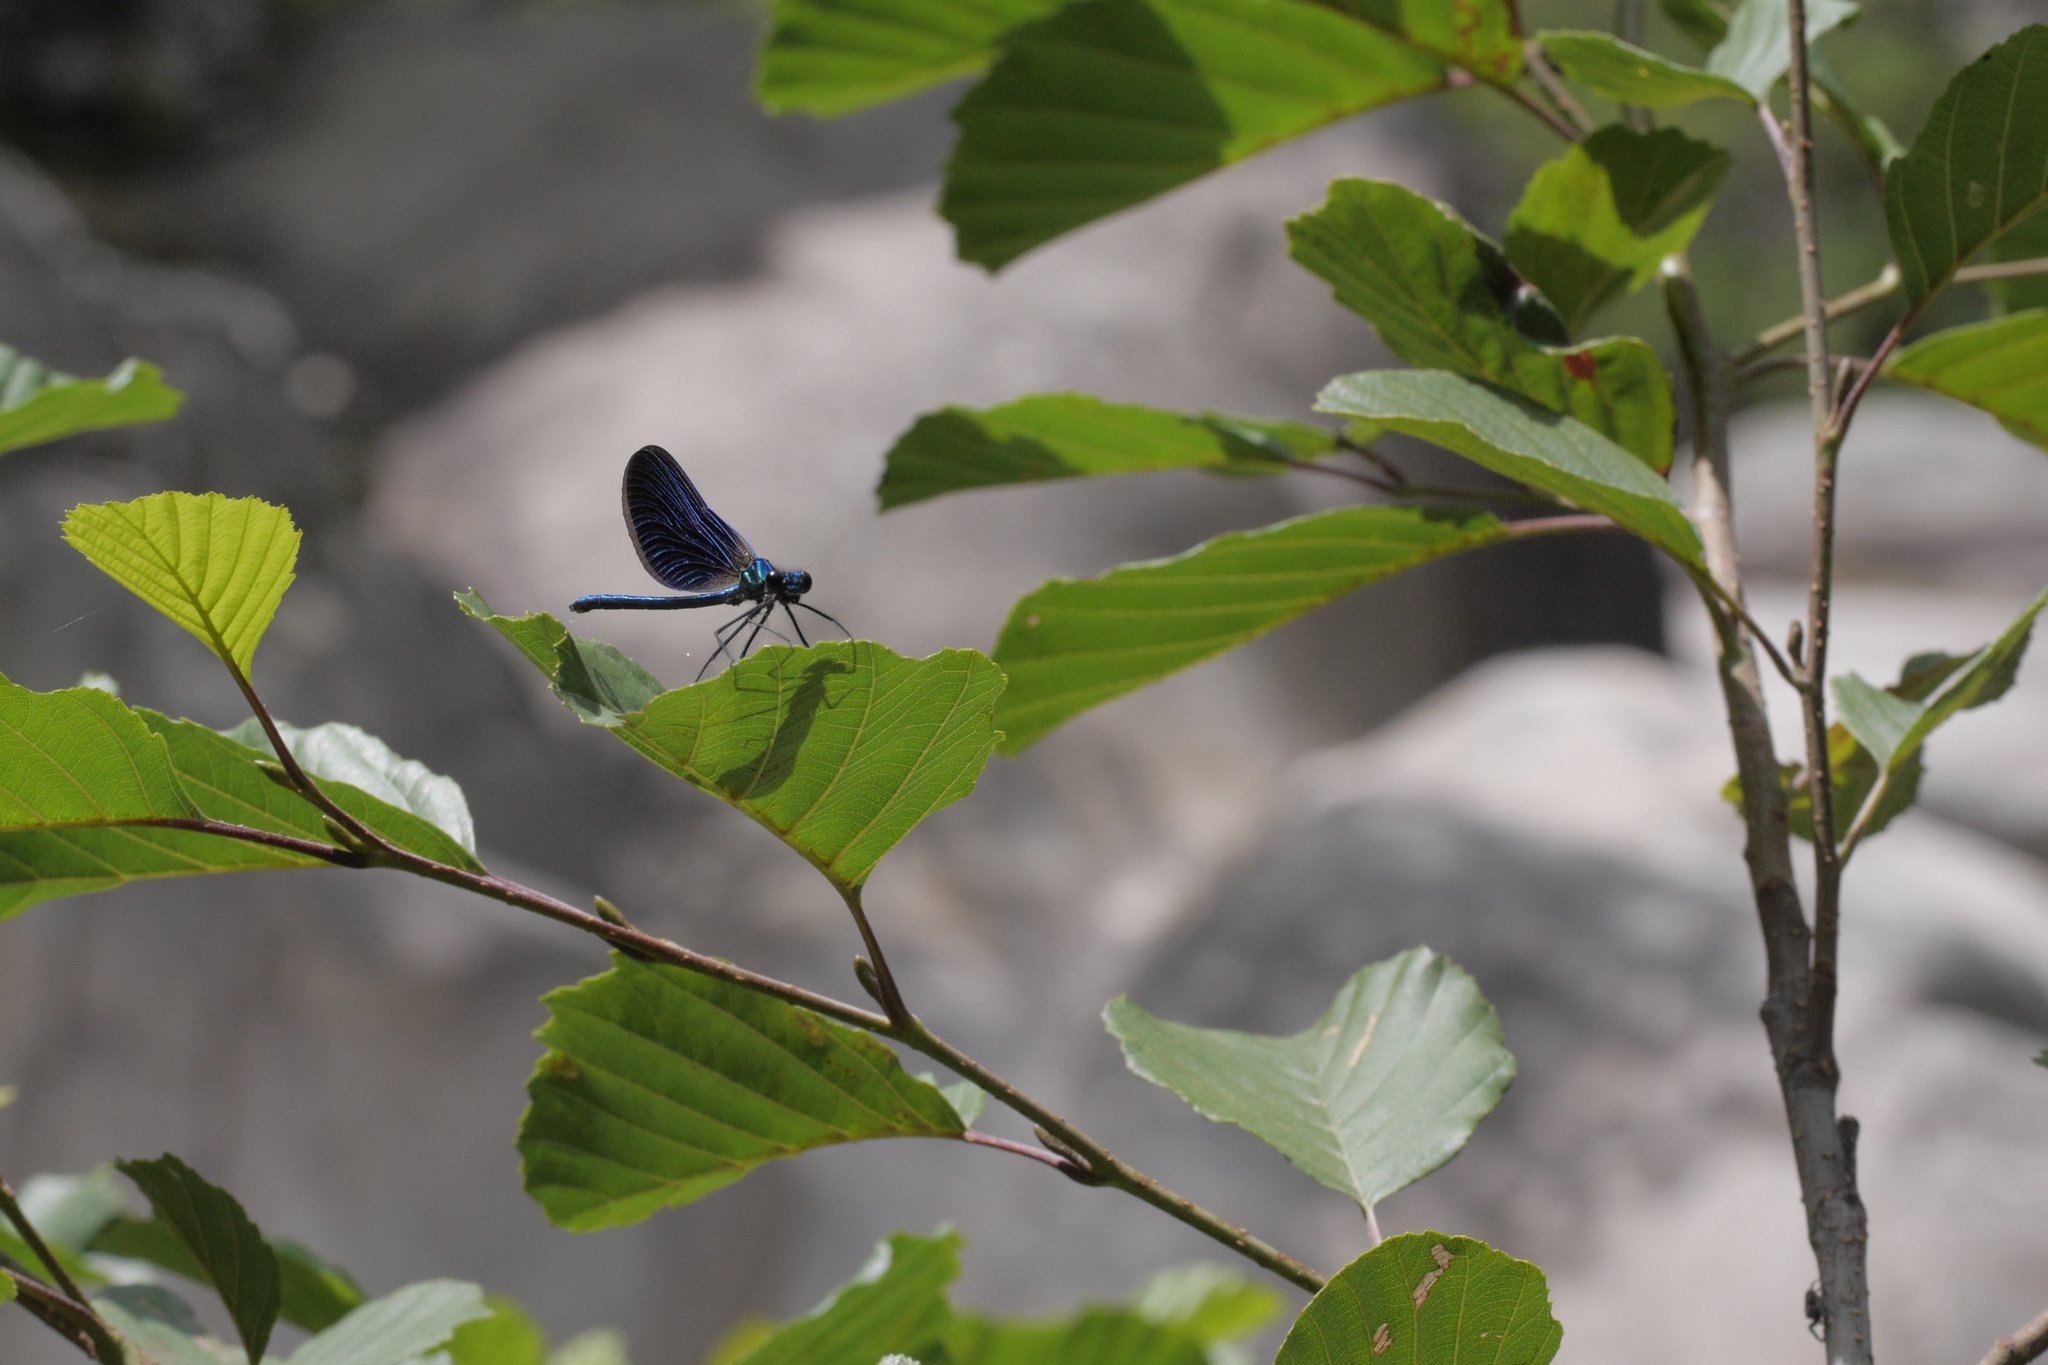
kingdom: Animalia
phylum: Arthropoda
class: Insecta
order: Odonata
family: Calopterygidae
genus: Calopteryx
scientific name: Calopteryx virgo
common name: Beautiful demoiselle
